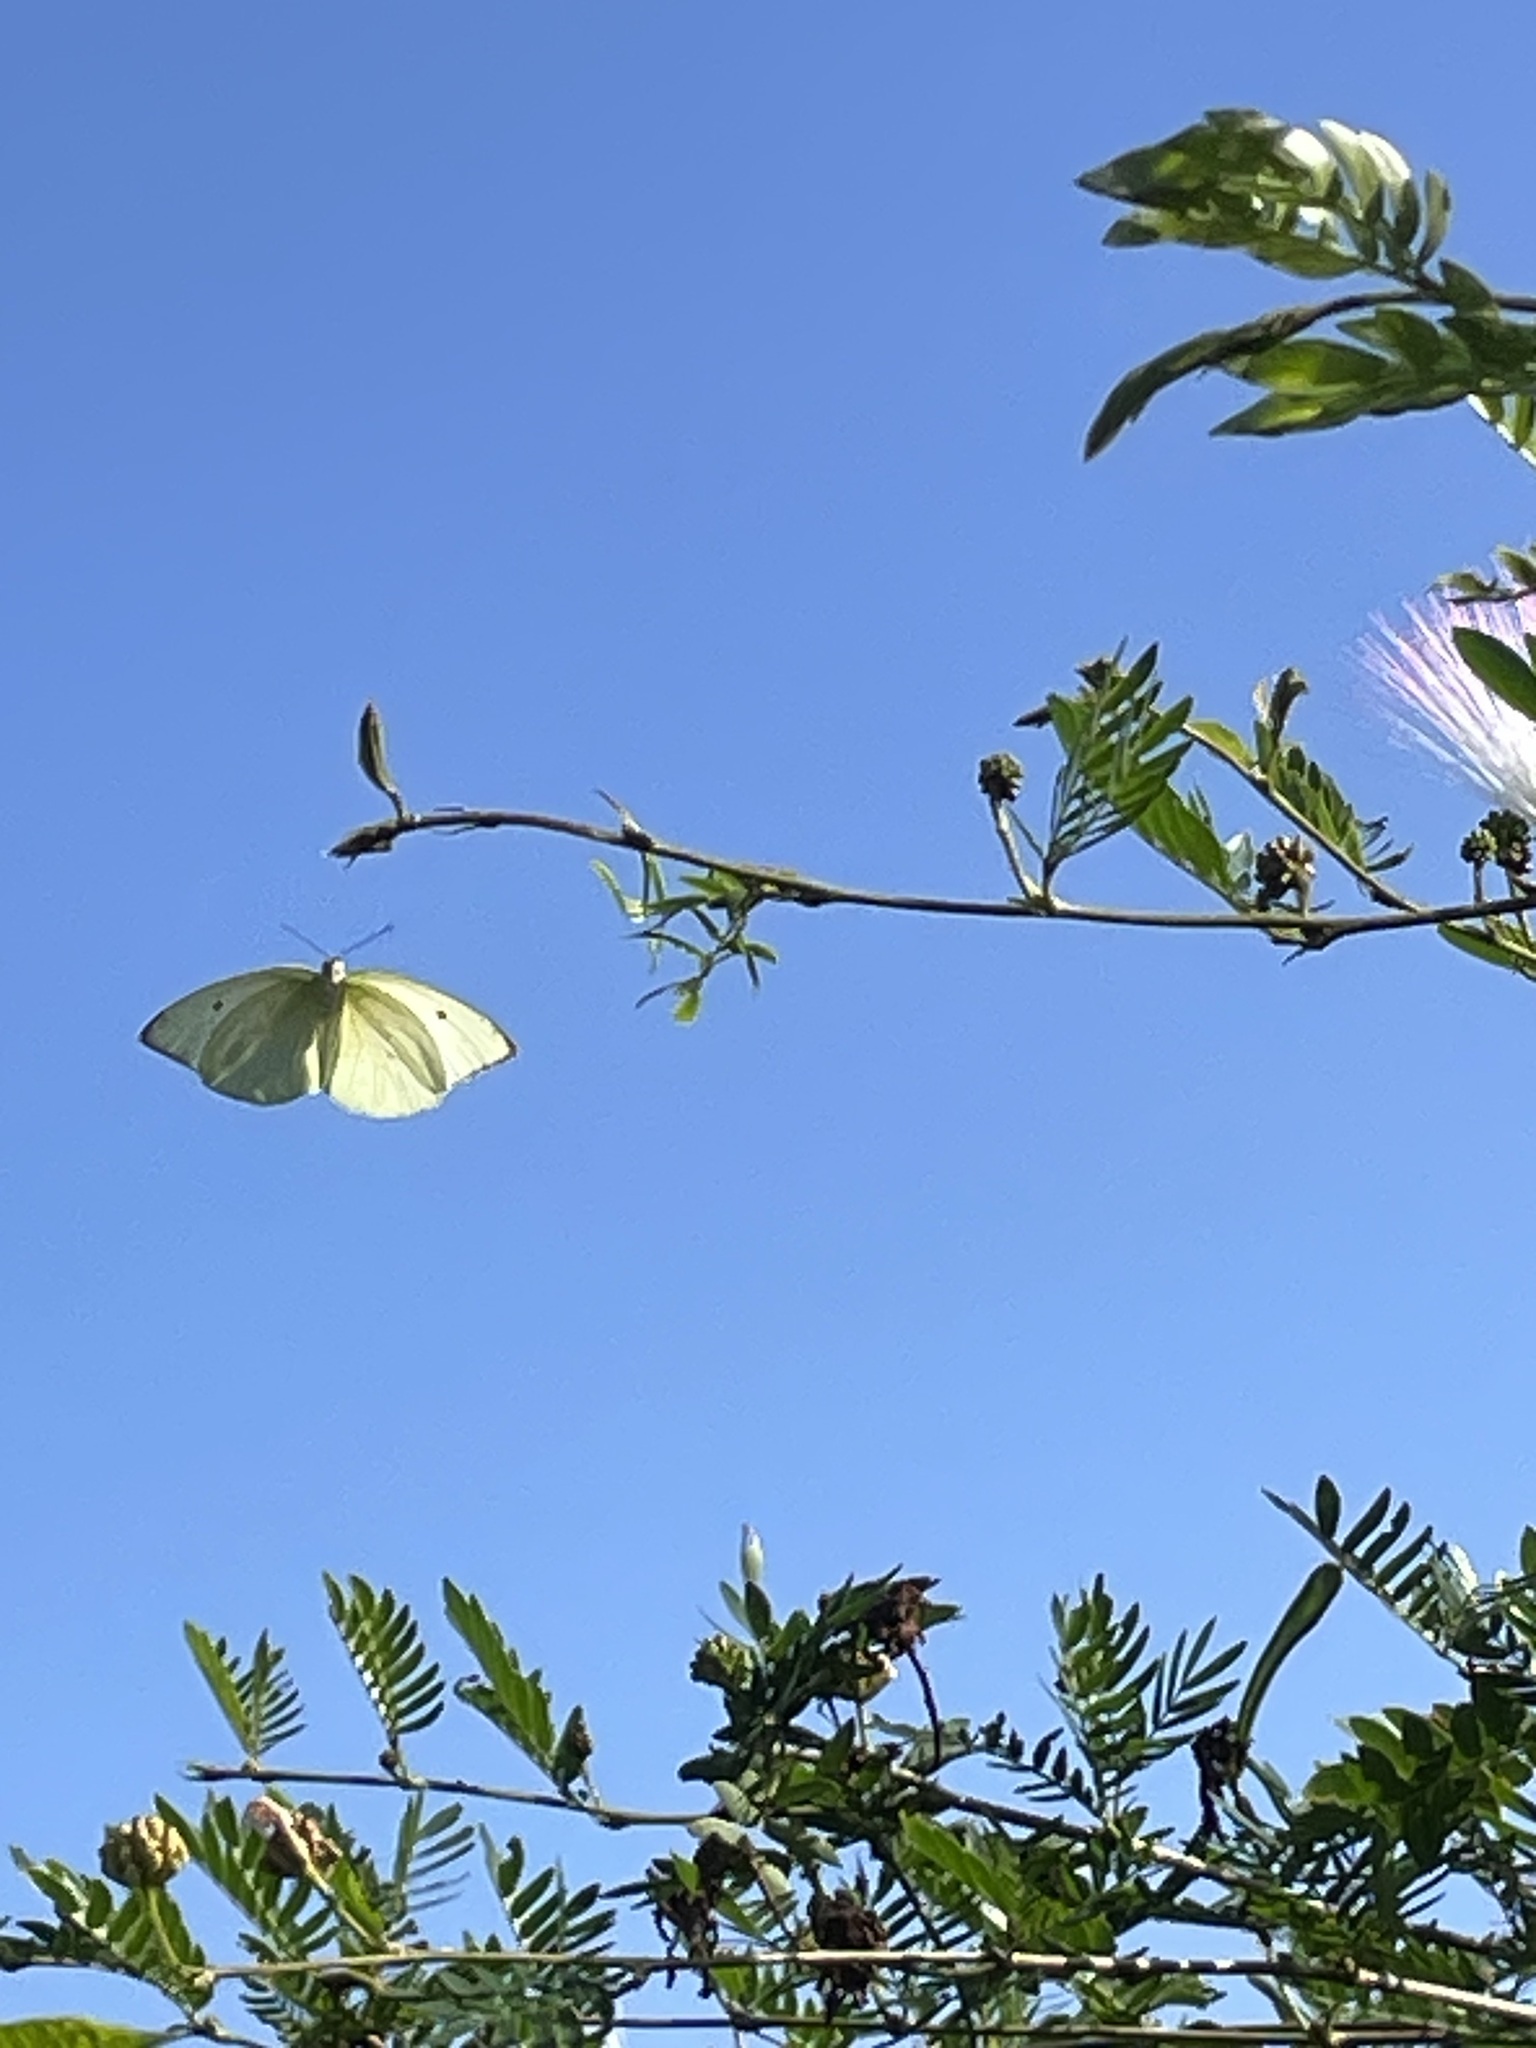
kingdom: Animalia
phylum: Arthropoda
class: Insecta
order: Lepidoptera
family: Pieridae
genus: Aphrissa
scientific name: Aphrissa statira
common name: Statira sulphur
